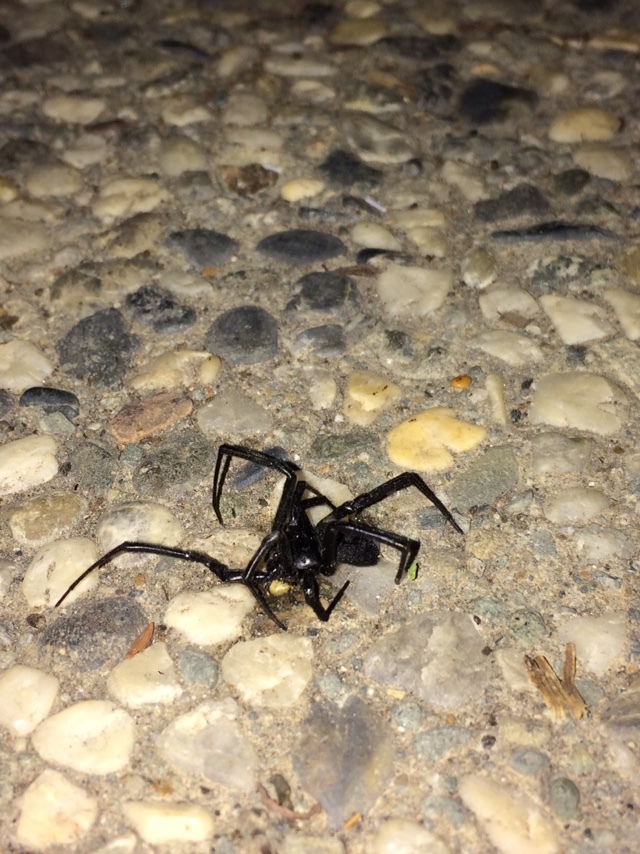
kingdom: Animalia
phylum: Arthropoda
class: Arachnida
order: Araneae
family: Theridiidae
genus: Latrodectus
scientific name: Latrodectus hesperus
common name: Western black widow
